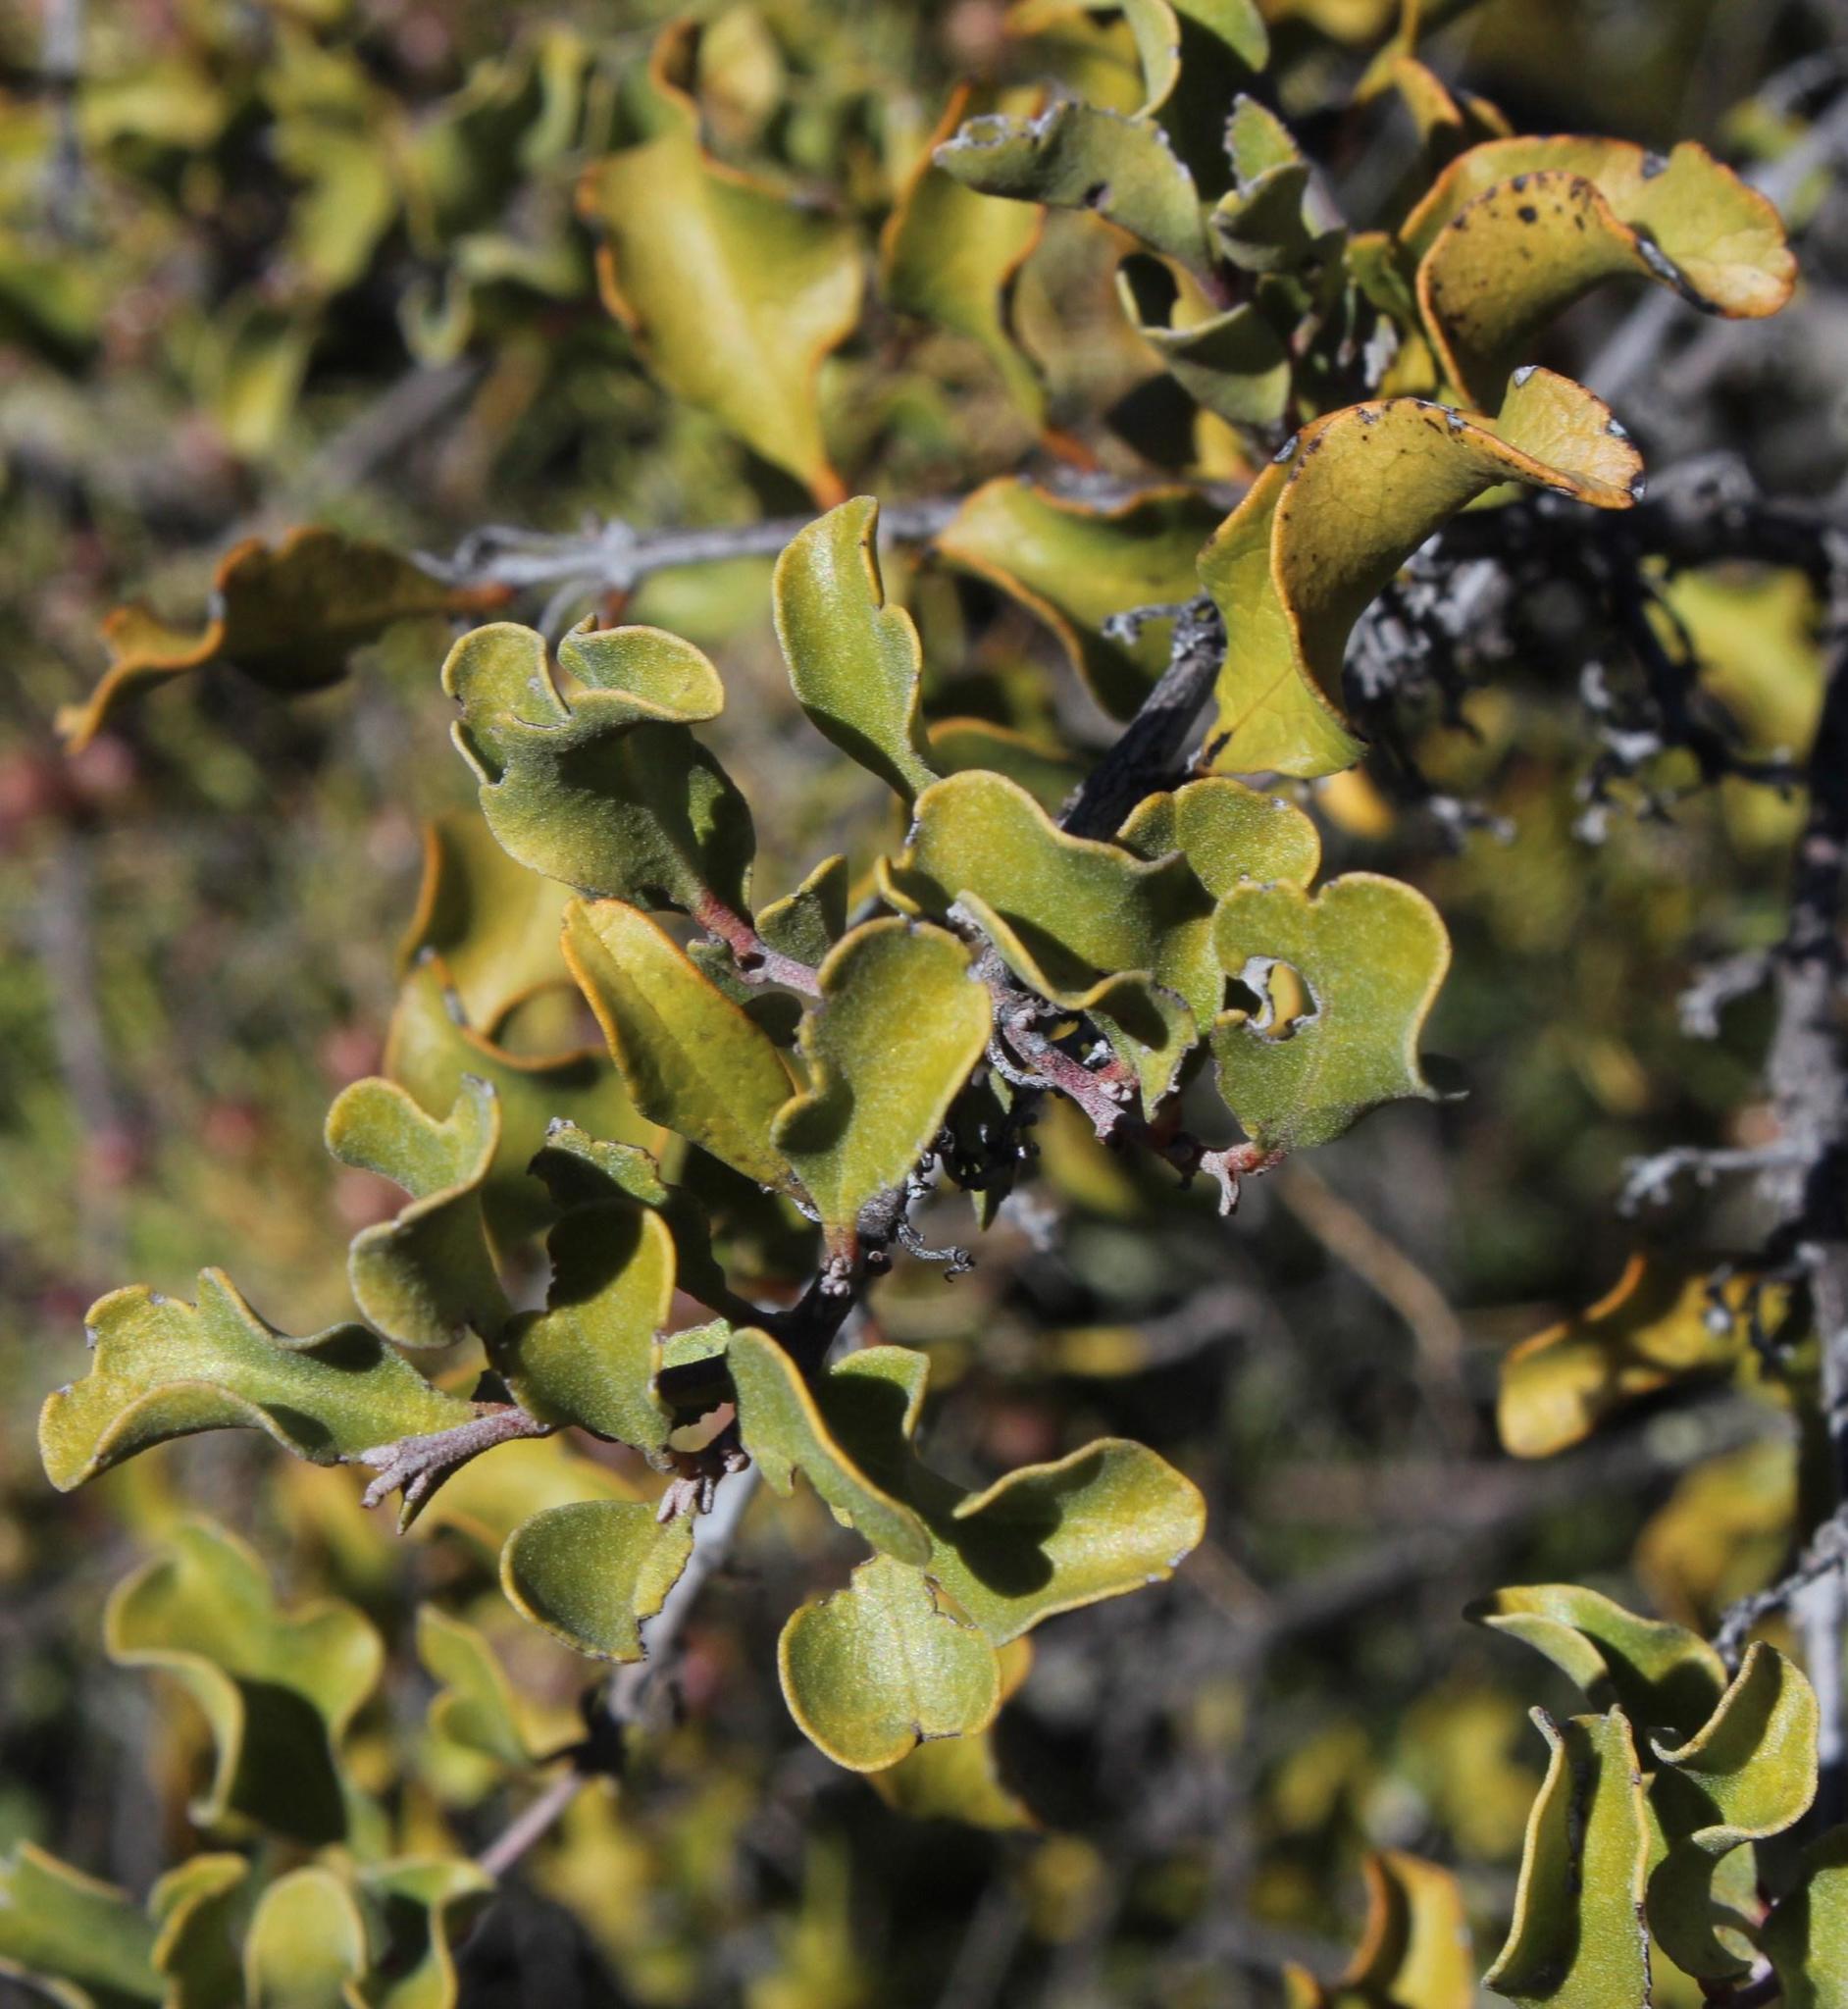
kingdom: Plantae
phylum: Tracheophyta
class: Magnoliopsida
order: Ericales
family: Ebenaceae
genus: Euclea
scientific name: Euclea undulata
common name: Small-leaved guarri
